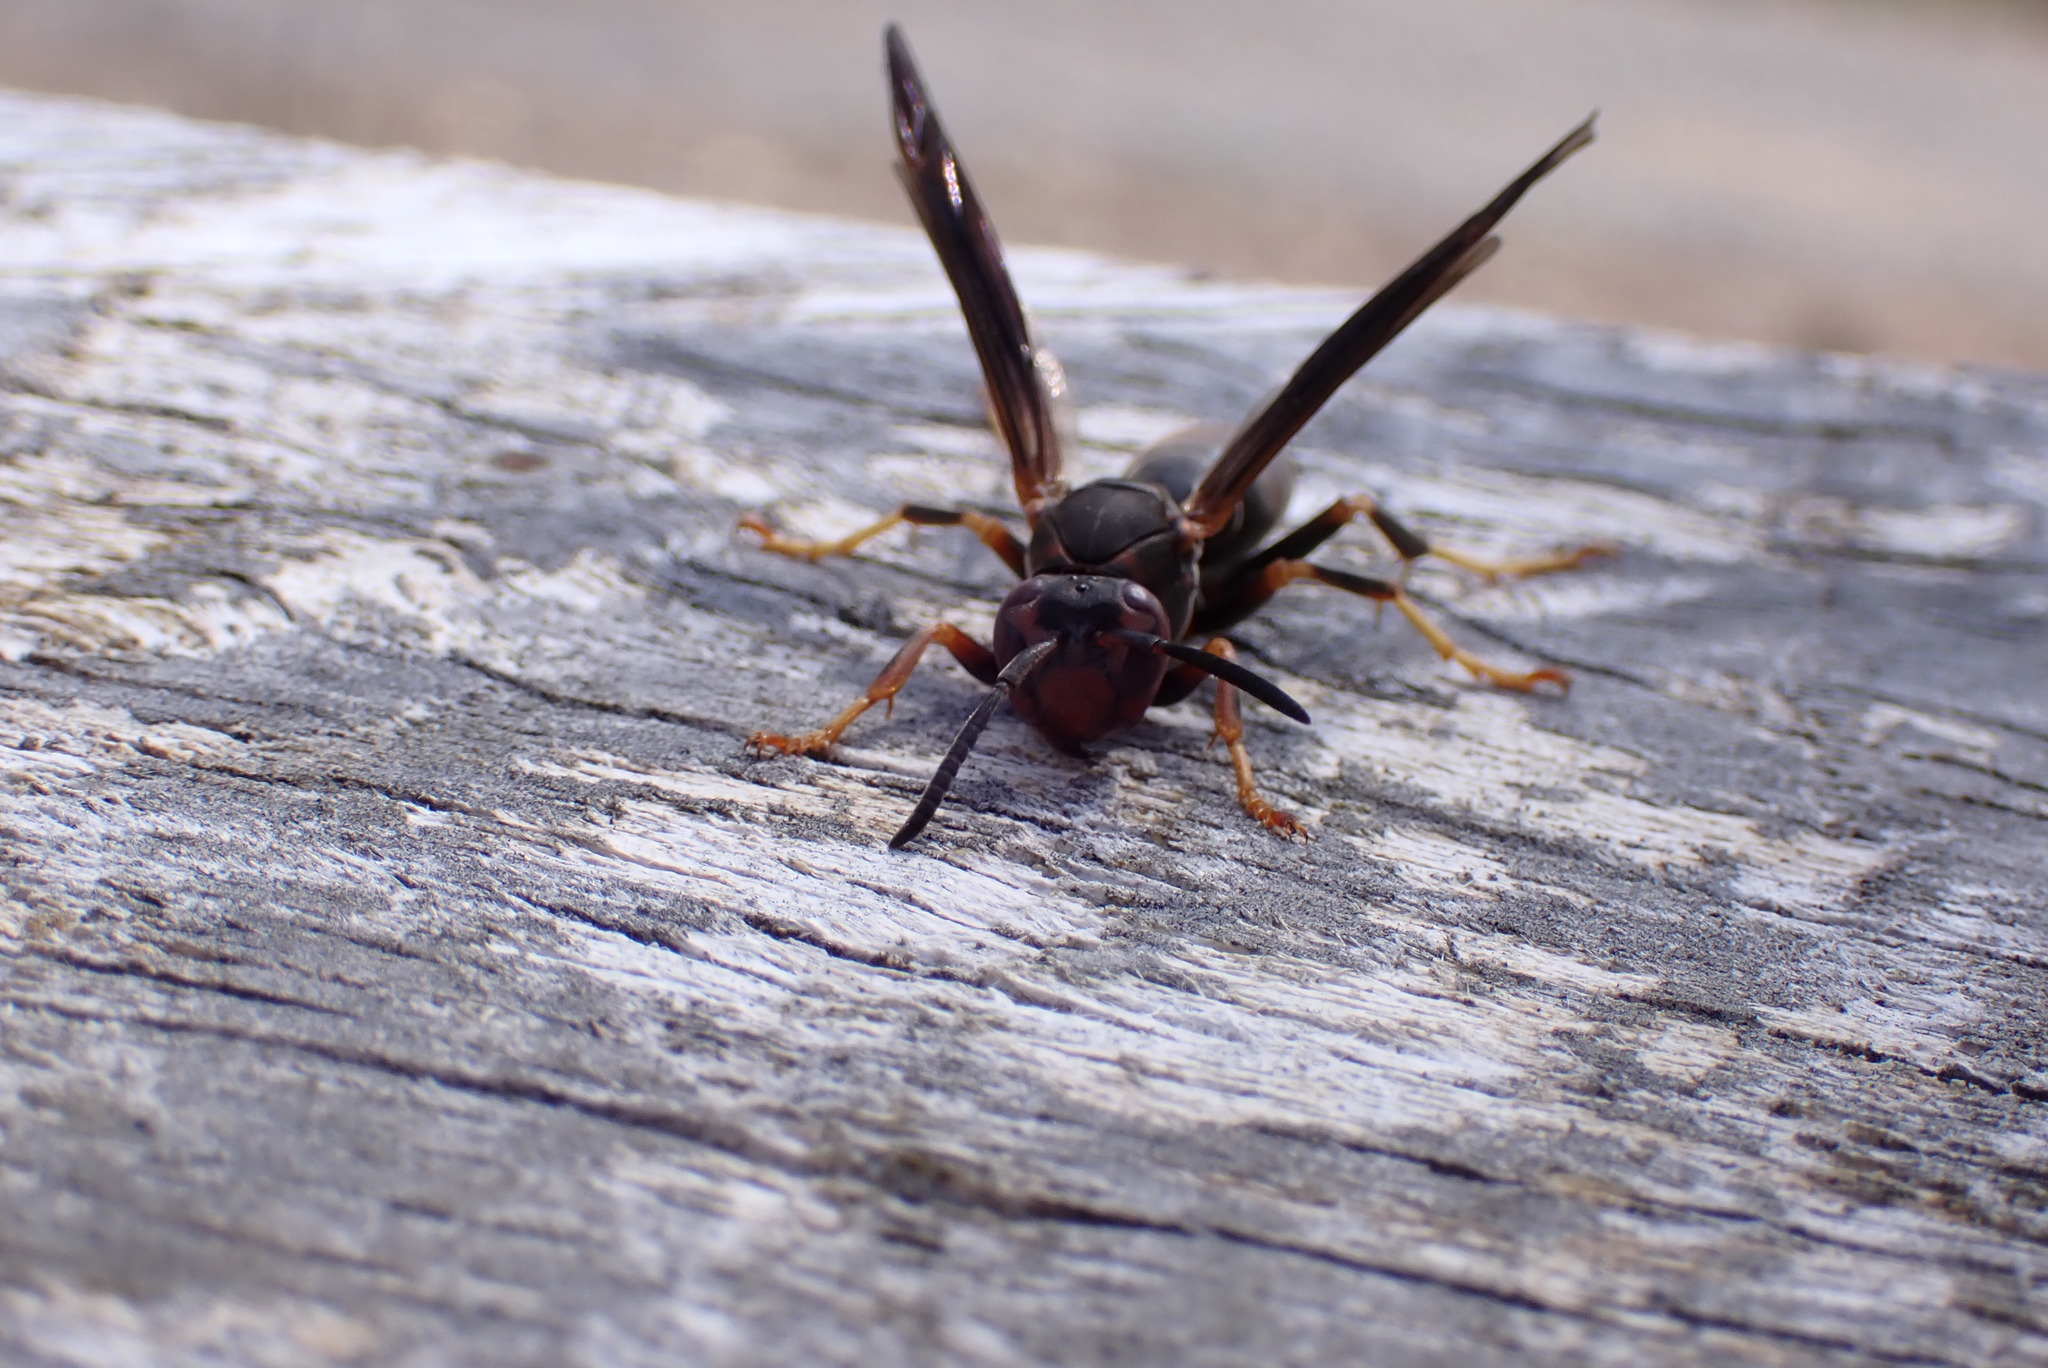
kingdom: Animalia
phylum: Arthropoda
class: Insecta
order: Hymenoptera
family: Vespidae
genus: Fuscopolistes
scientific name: Fuscopolistes
